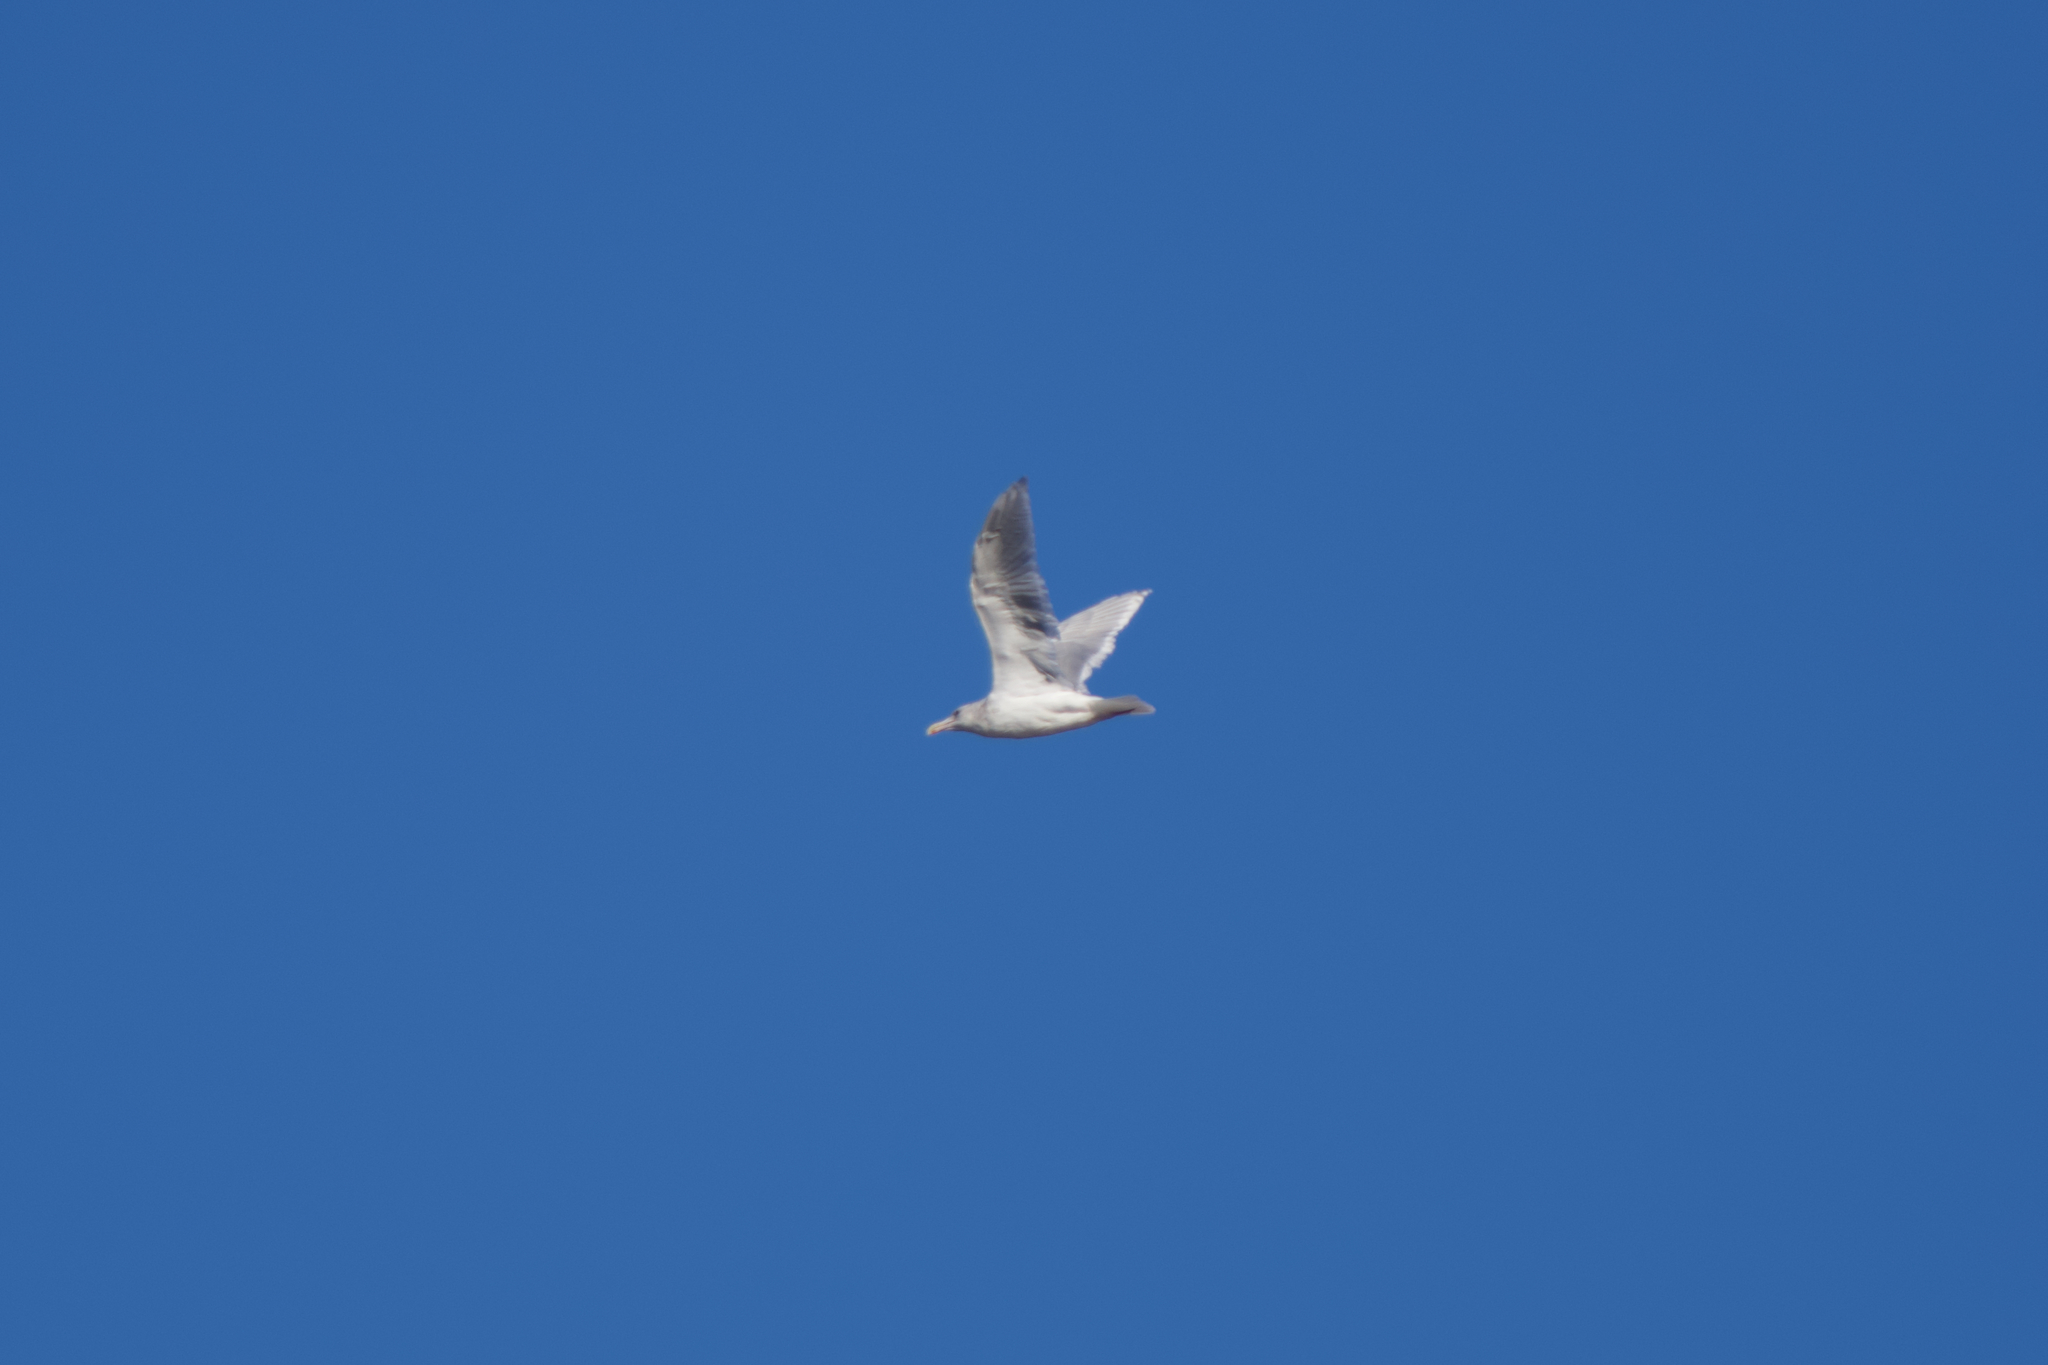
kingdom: Animalia
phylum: Chordata
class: Aves
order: Charadriiformes
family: Laridae
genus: Larus
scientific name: Larus glaucescens
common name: Glaucous-winged gull
